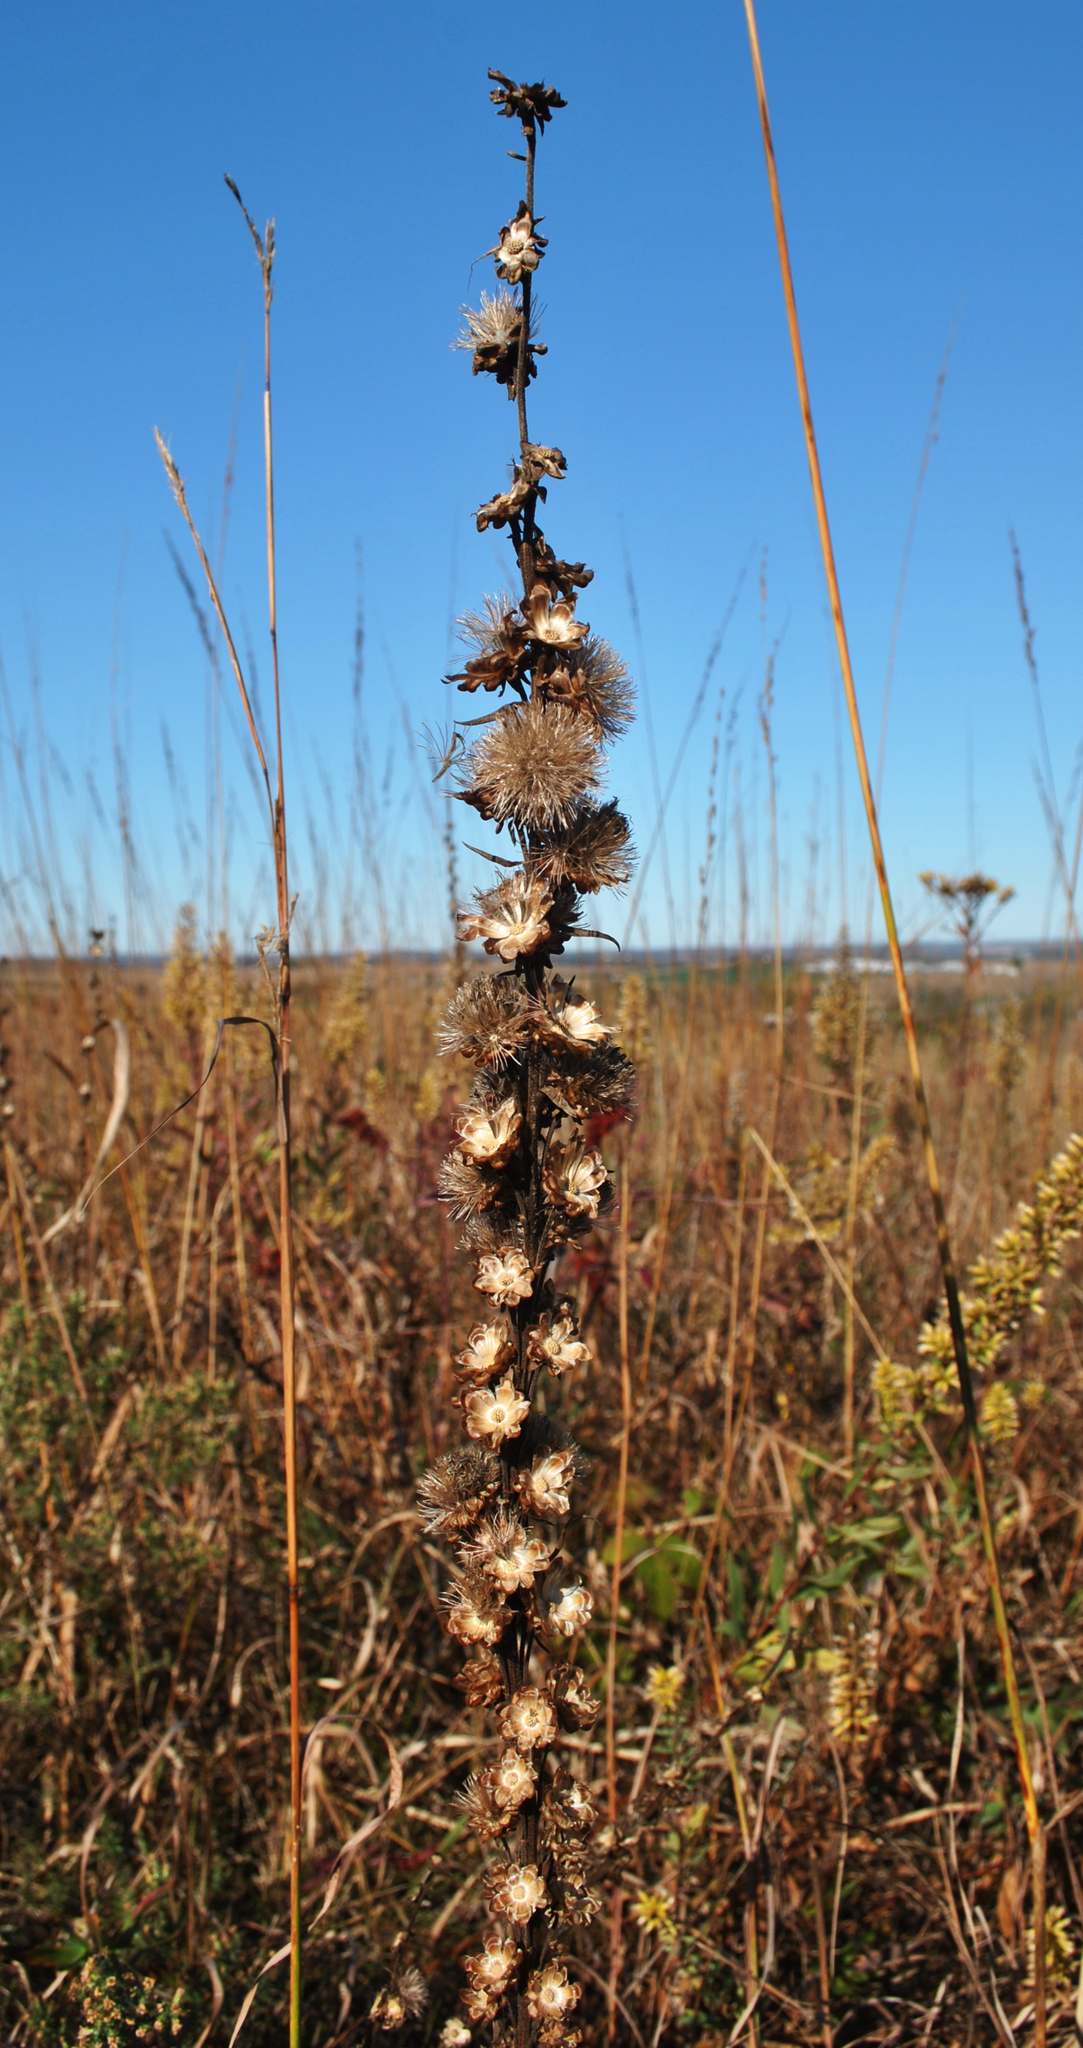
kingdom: Plantae
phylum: Tracheophyta
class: Magnoliopsida
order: Asterales
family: Asteraceae
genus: Liatris
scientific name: Liatris aspera
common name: Lacerate blazing-star
